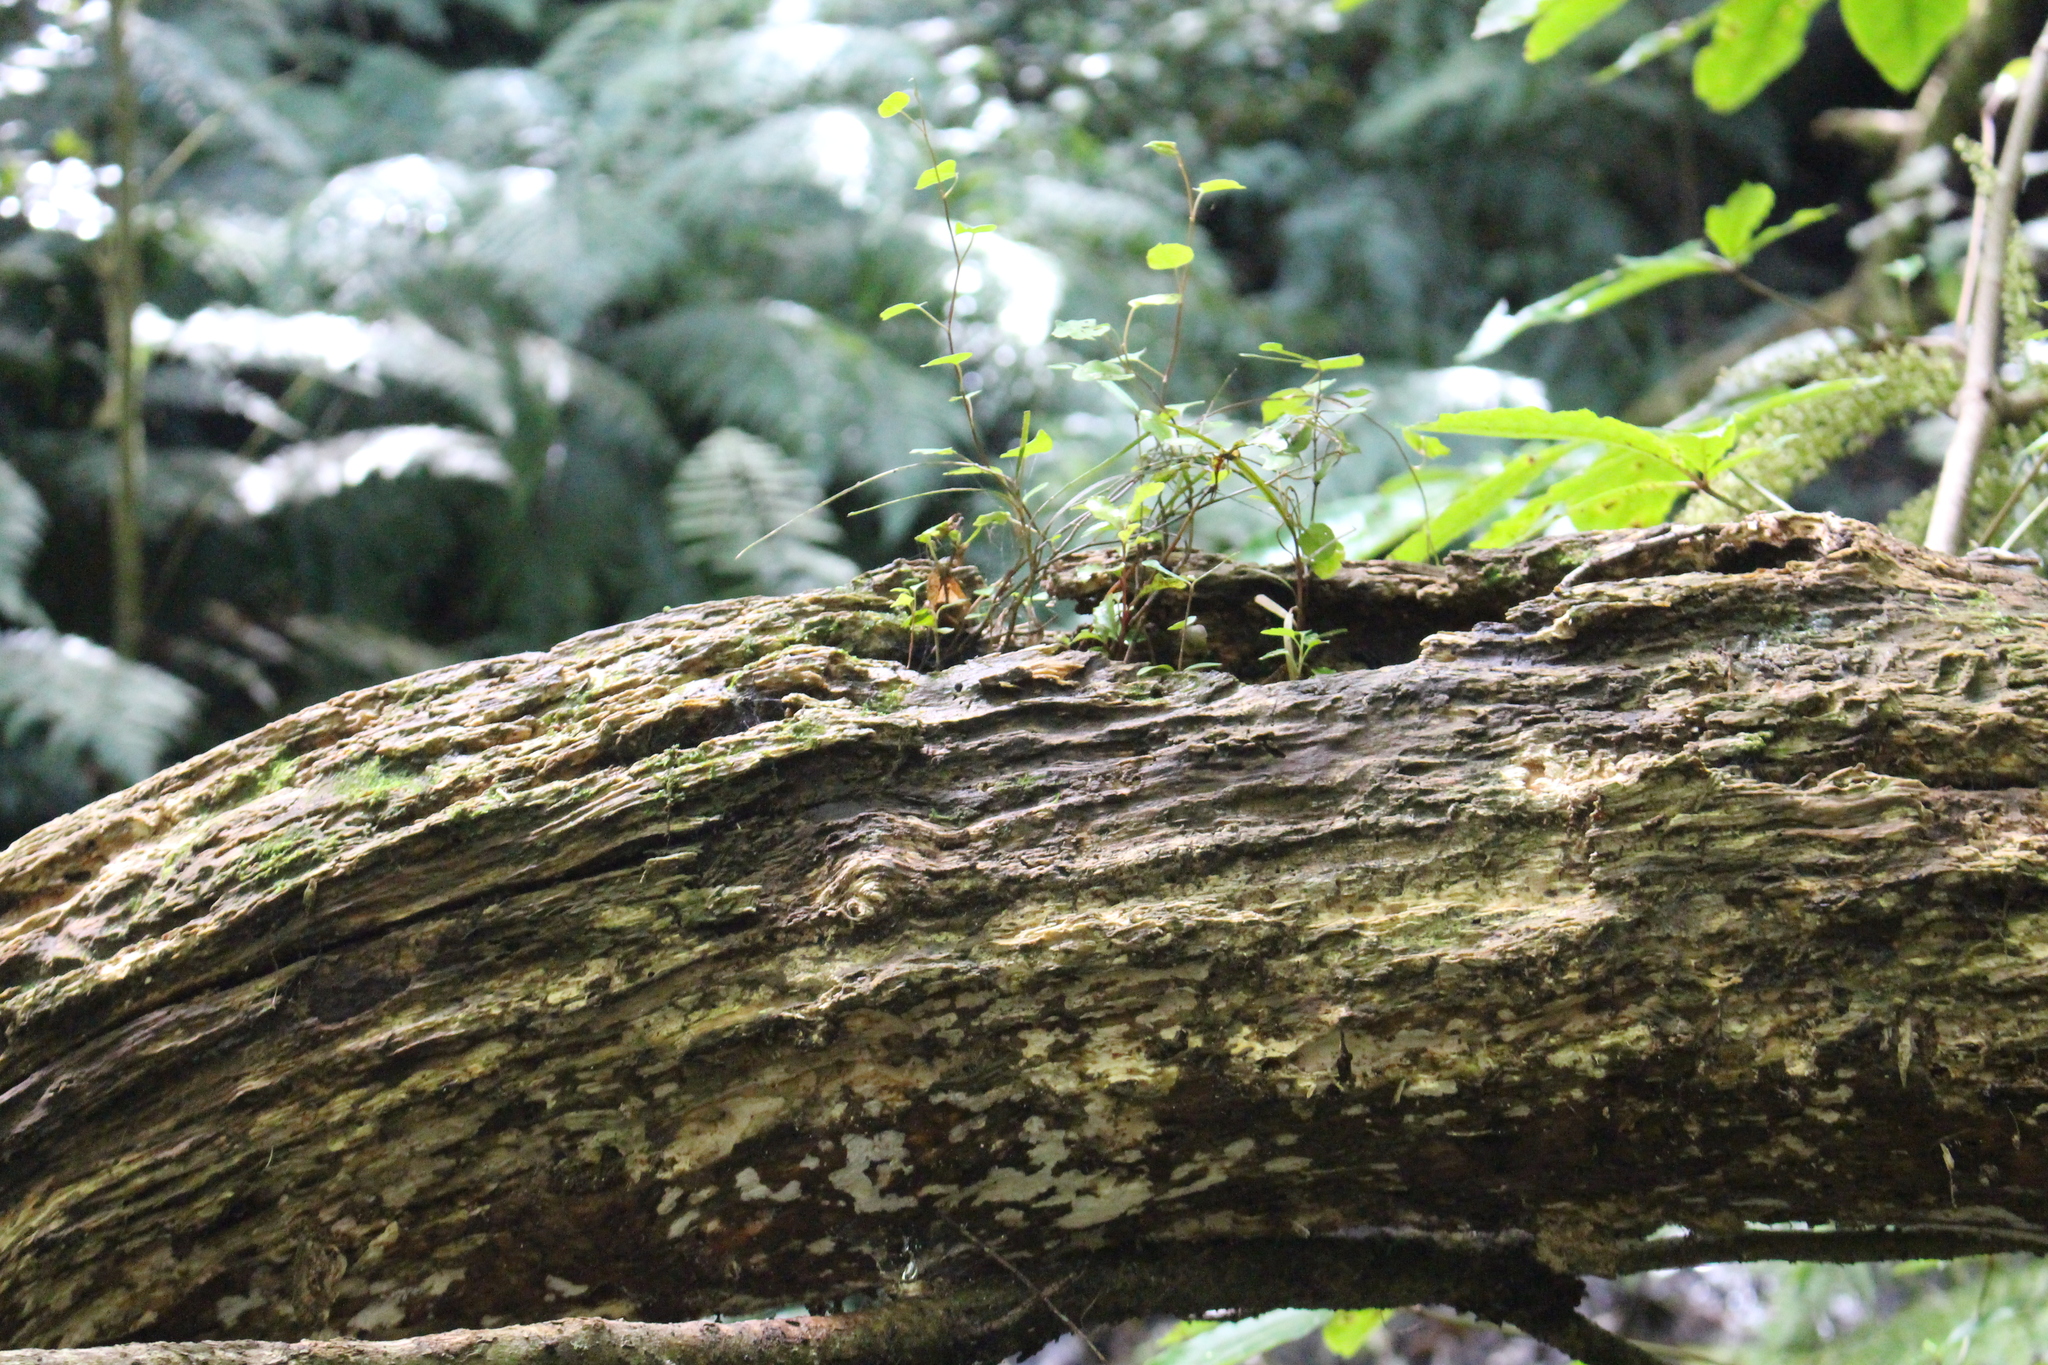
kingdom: Plantae
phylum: Tracheophyta
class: Magnoliopsida
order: Ericales
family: Primulaceae
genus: Myrsine
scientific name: Myrsine australis
